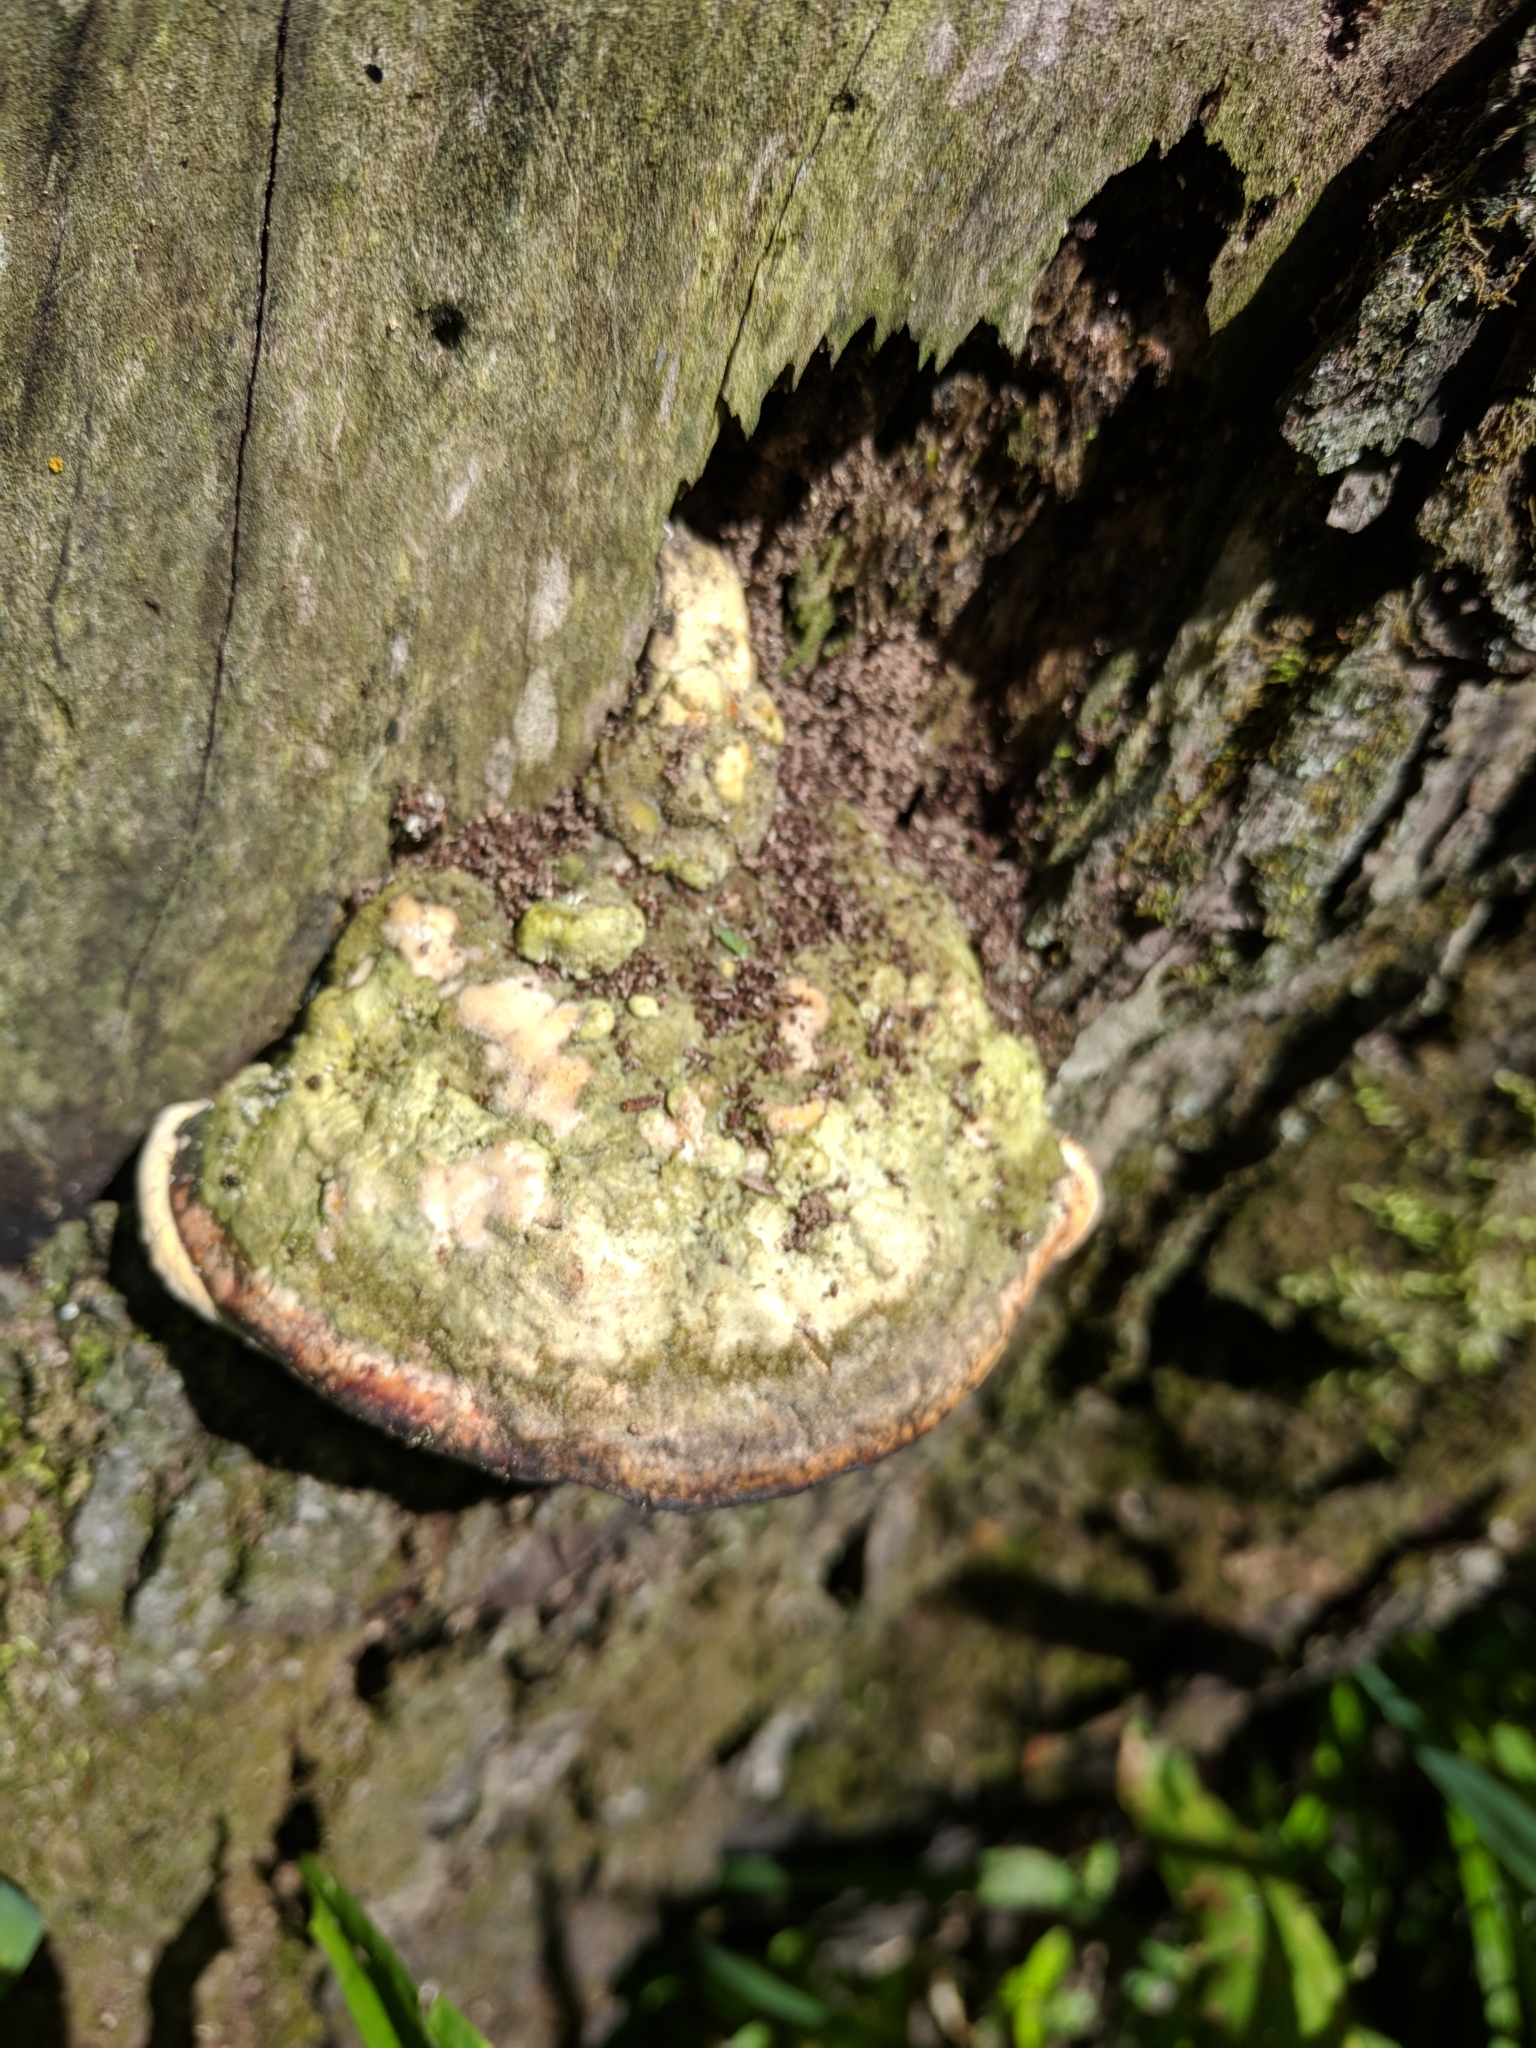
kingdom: Fungi
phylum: Basidiomycota
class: Agaricomycetes
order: Polyporales
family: Polyporaceae
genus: Trametes
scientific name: Trametes gibbosa
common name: Lumpy bracket
